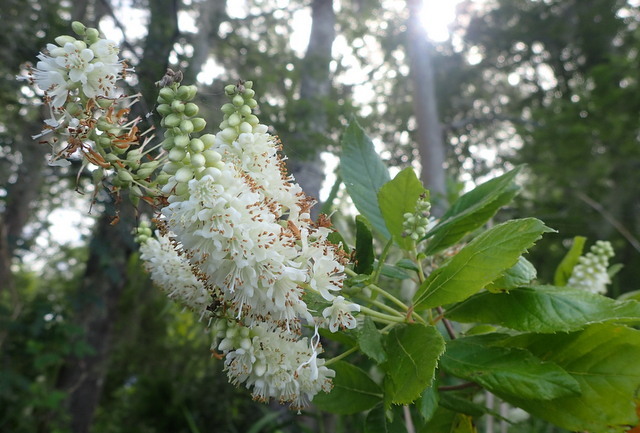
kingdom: Plantae
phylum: Tracheophyta
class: Magnoliopsida
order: Ericales
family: Clethraceae
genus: Clethra
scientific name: Clethra alnifolia
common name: Sweet pepperbush
